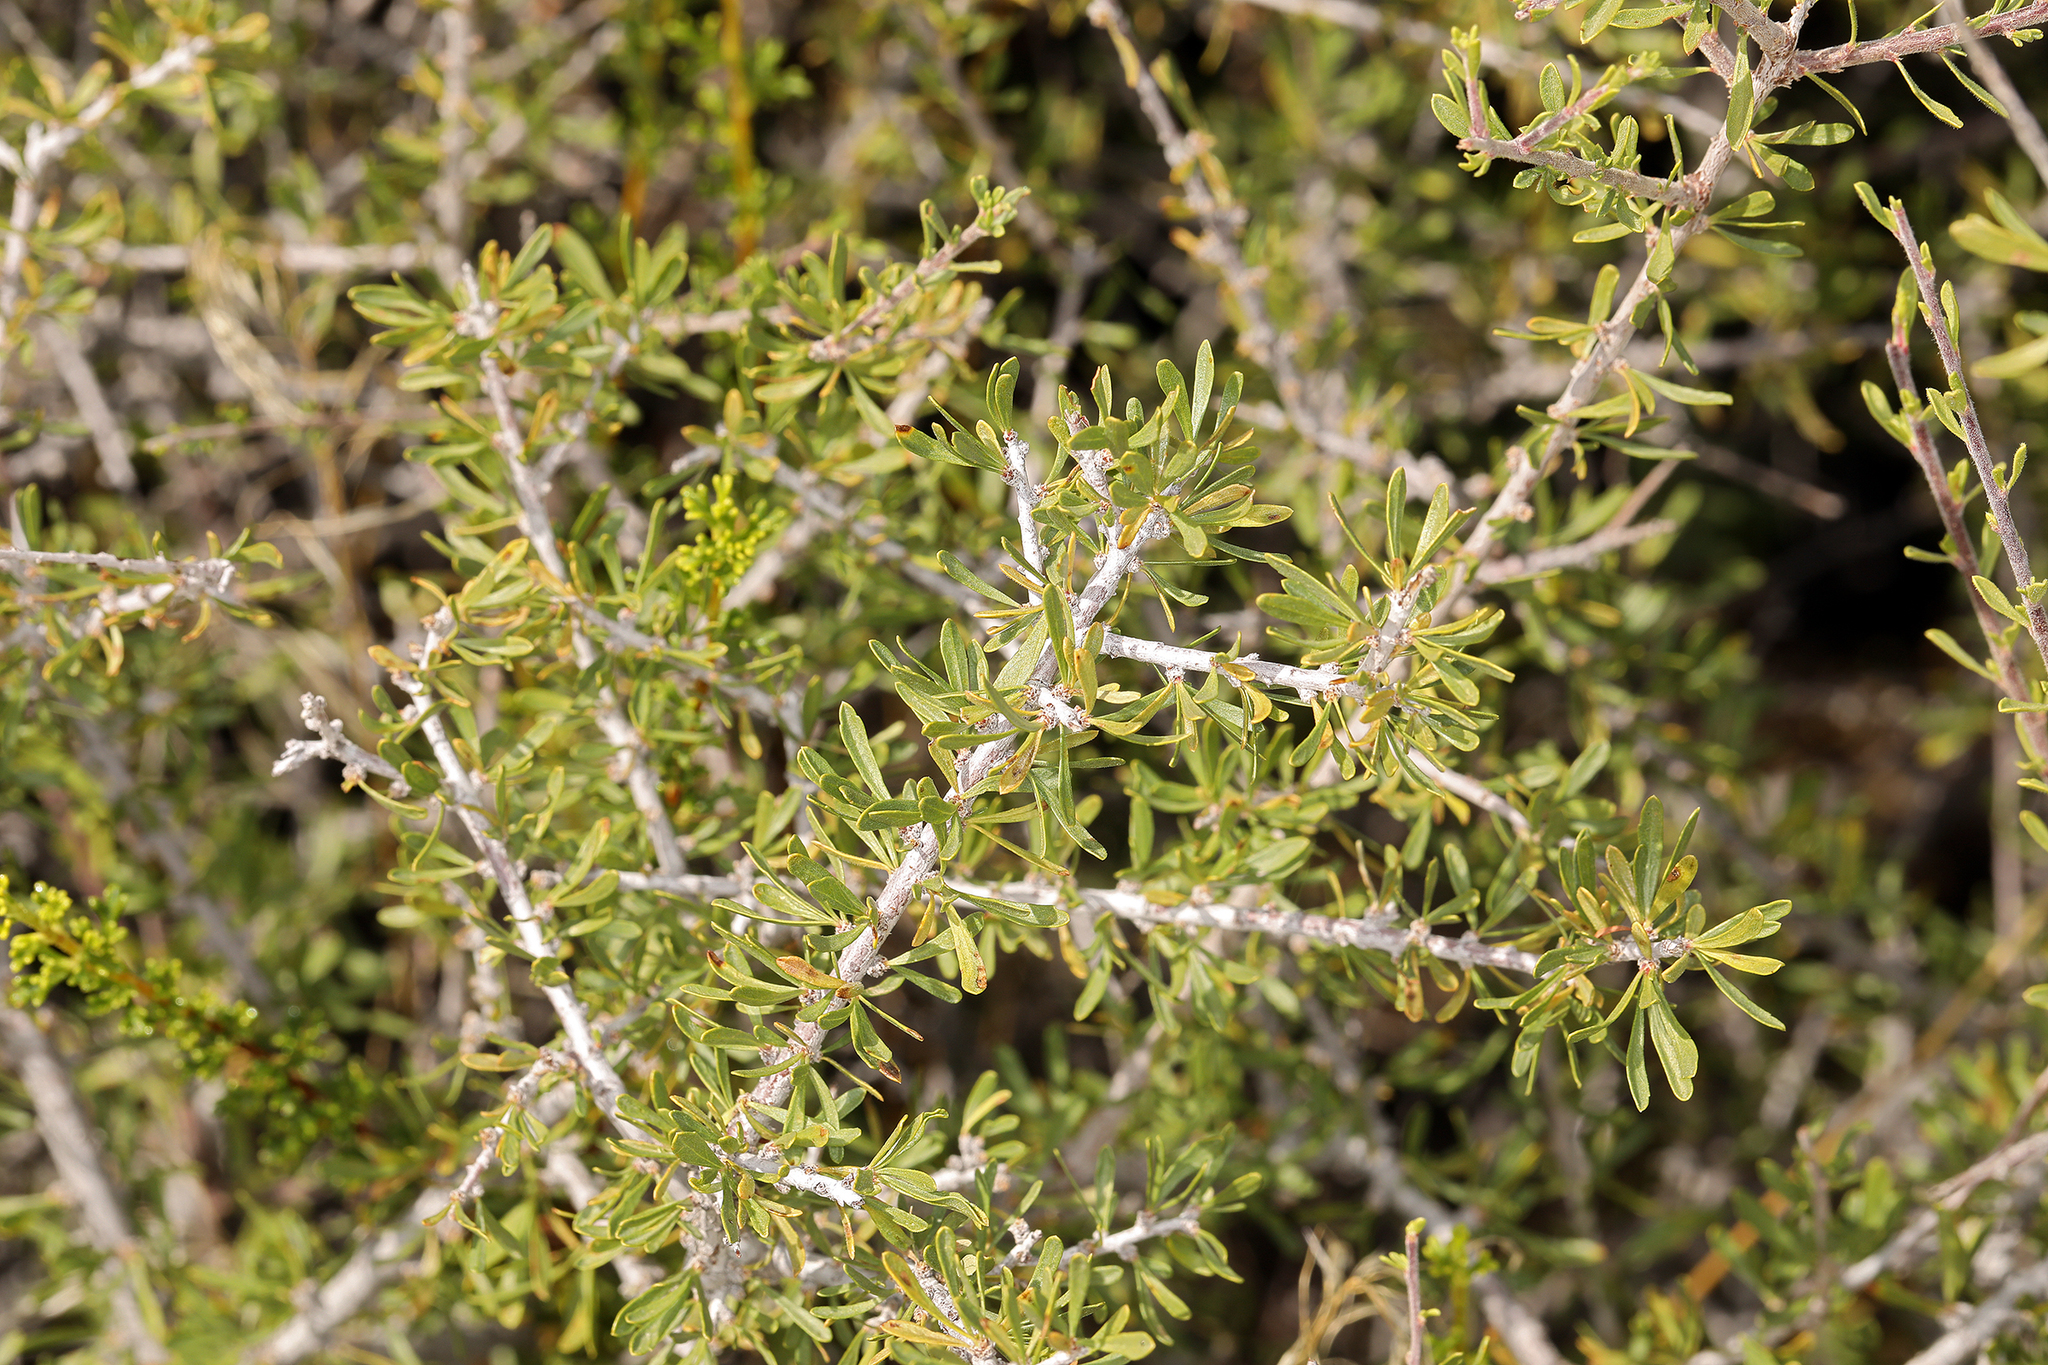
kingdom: Plantae
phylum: Tracheophyta
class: Magnoliopsida
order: Rosales
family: Rosaceae
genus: Prunus
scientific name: Prunus fasciculata
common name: Desert almond
